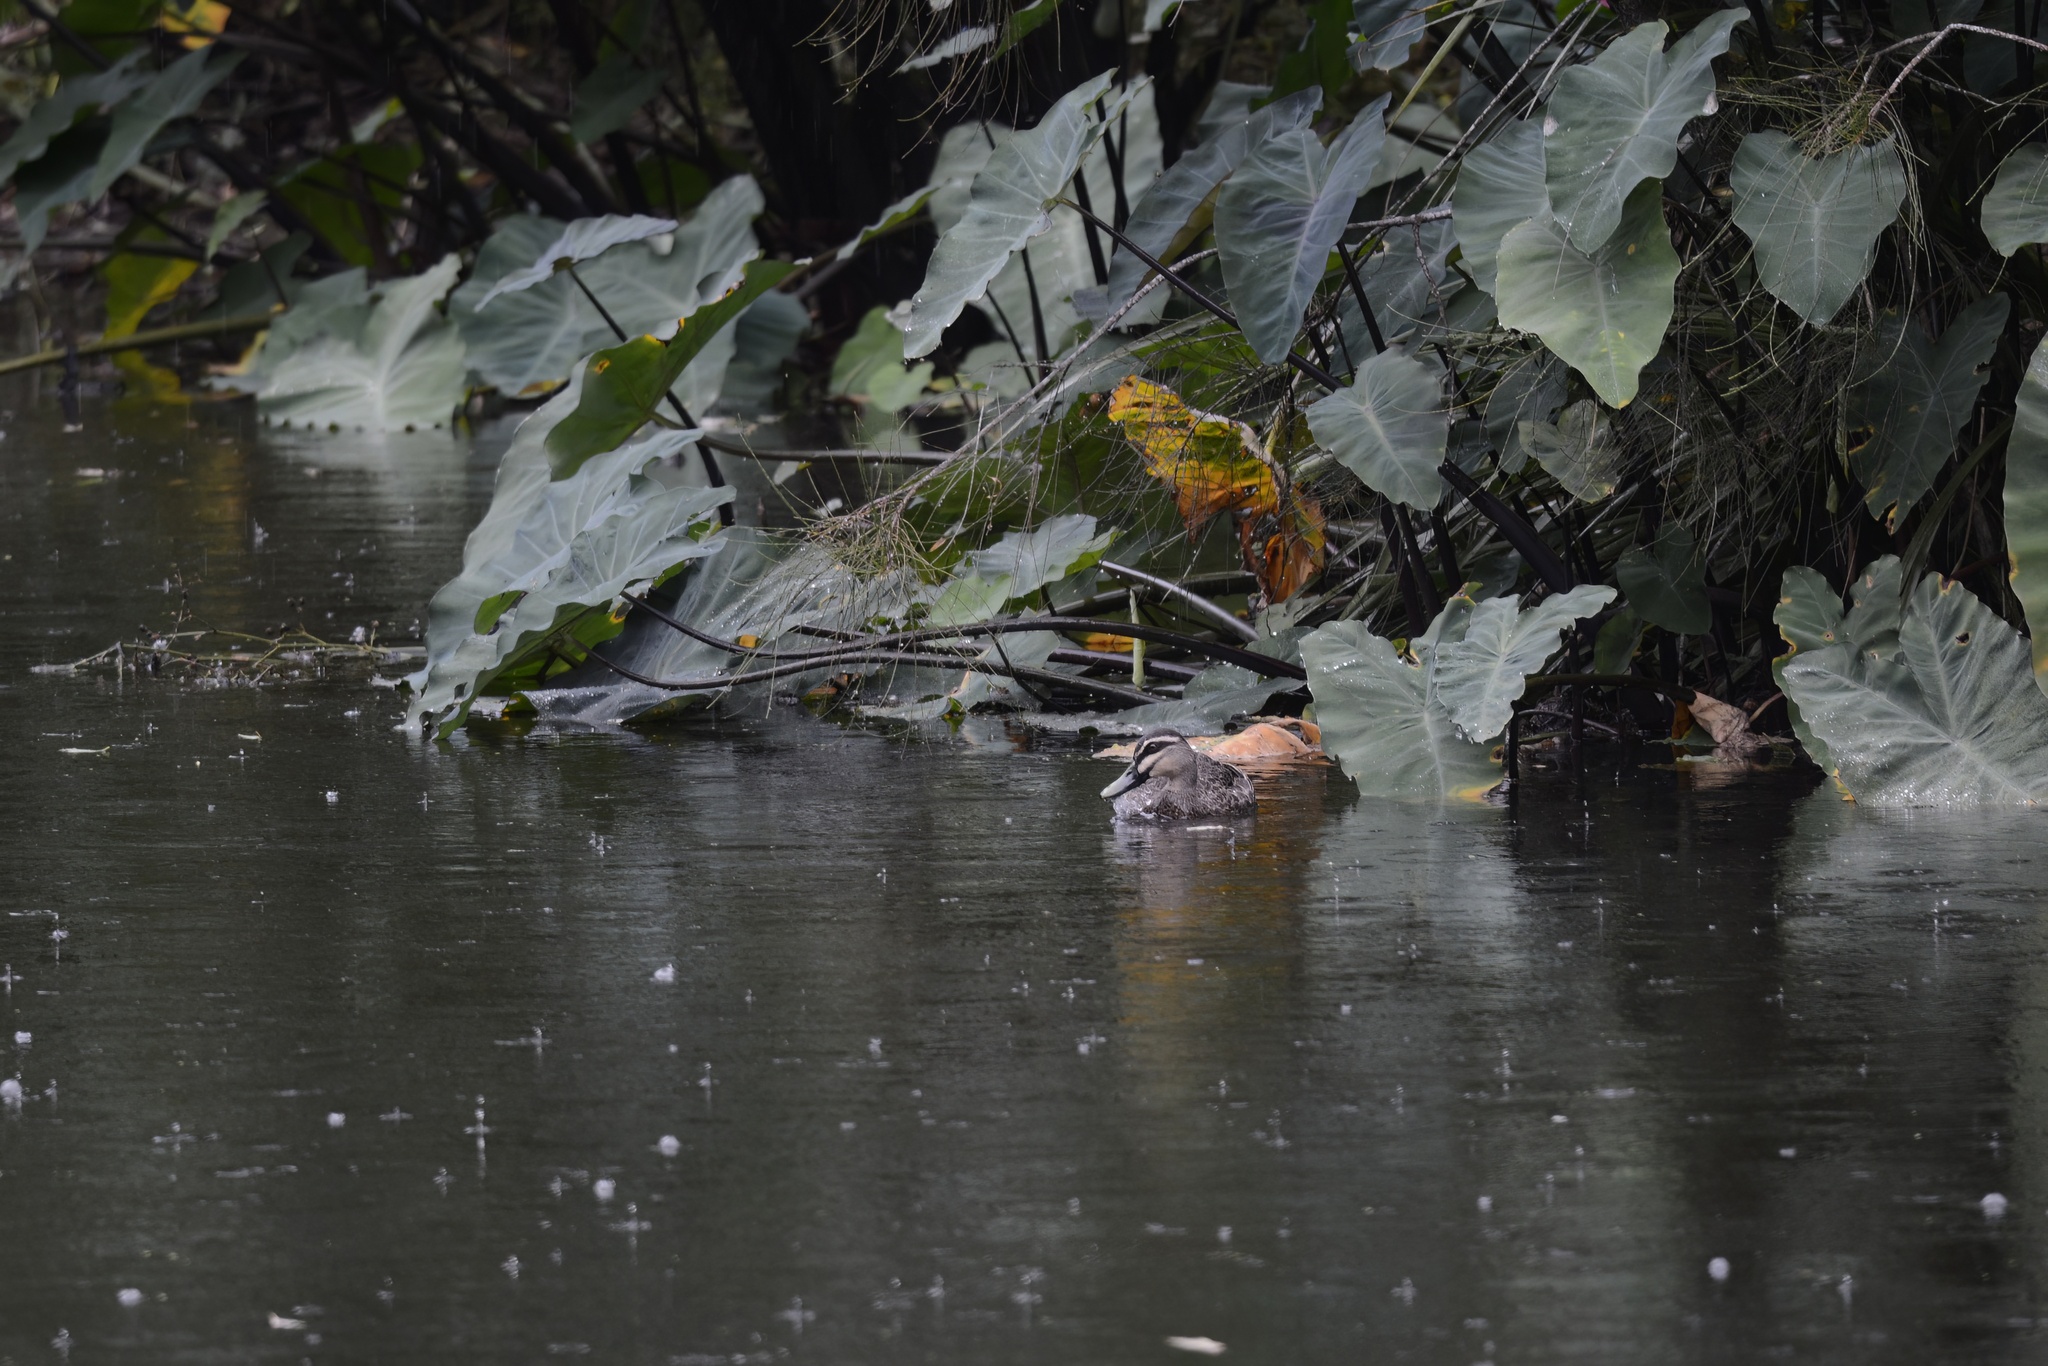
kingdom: Animalia
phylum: Chordata
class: Aves
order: Anseriformes
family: Anatidae
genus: Anas
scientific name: Anas superciliosa
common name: Pacific black duck
